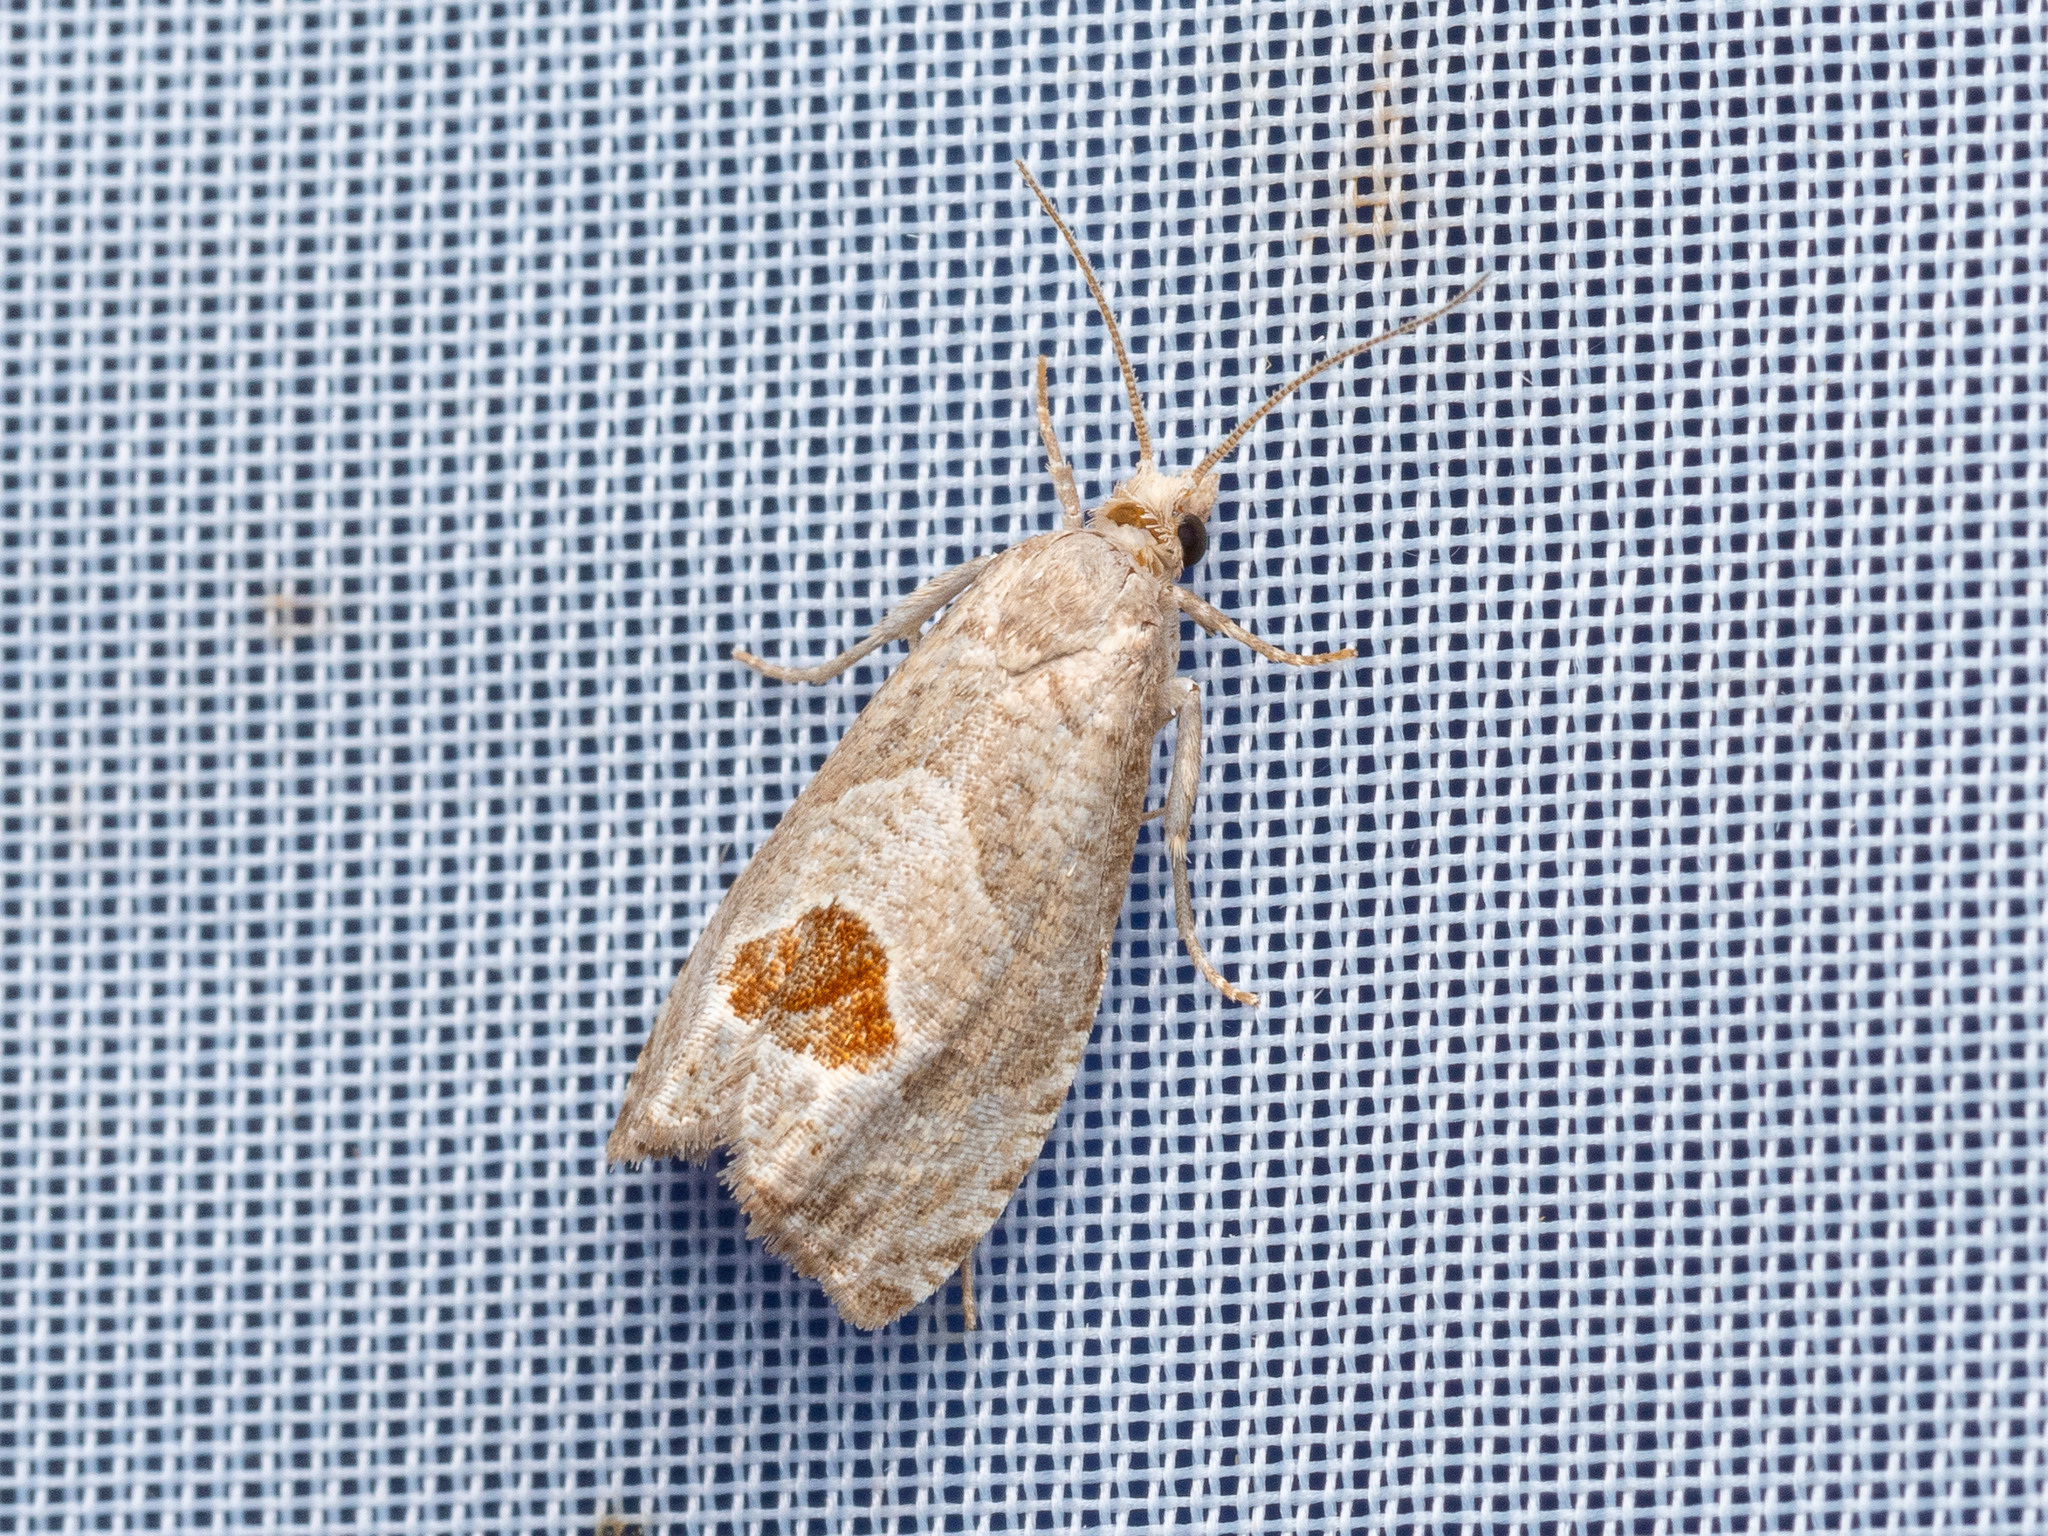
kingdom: Animalia
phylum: Arthropoda
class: Insecta
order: Lepidoptera
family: Tortricidae
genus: Notocelia
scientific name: Notocelia uddmanniana
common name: Bramble shoot moth
